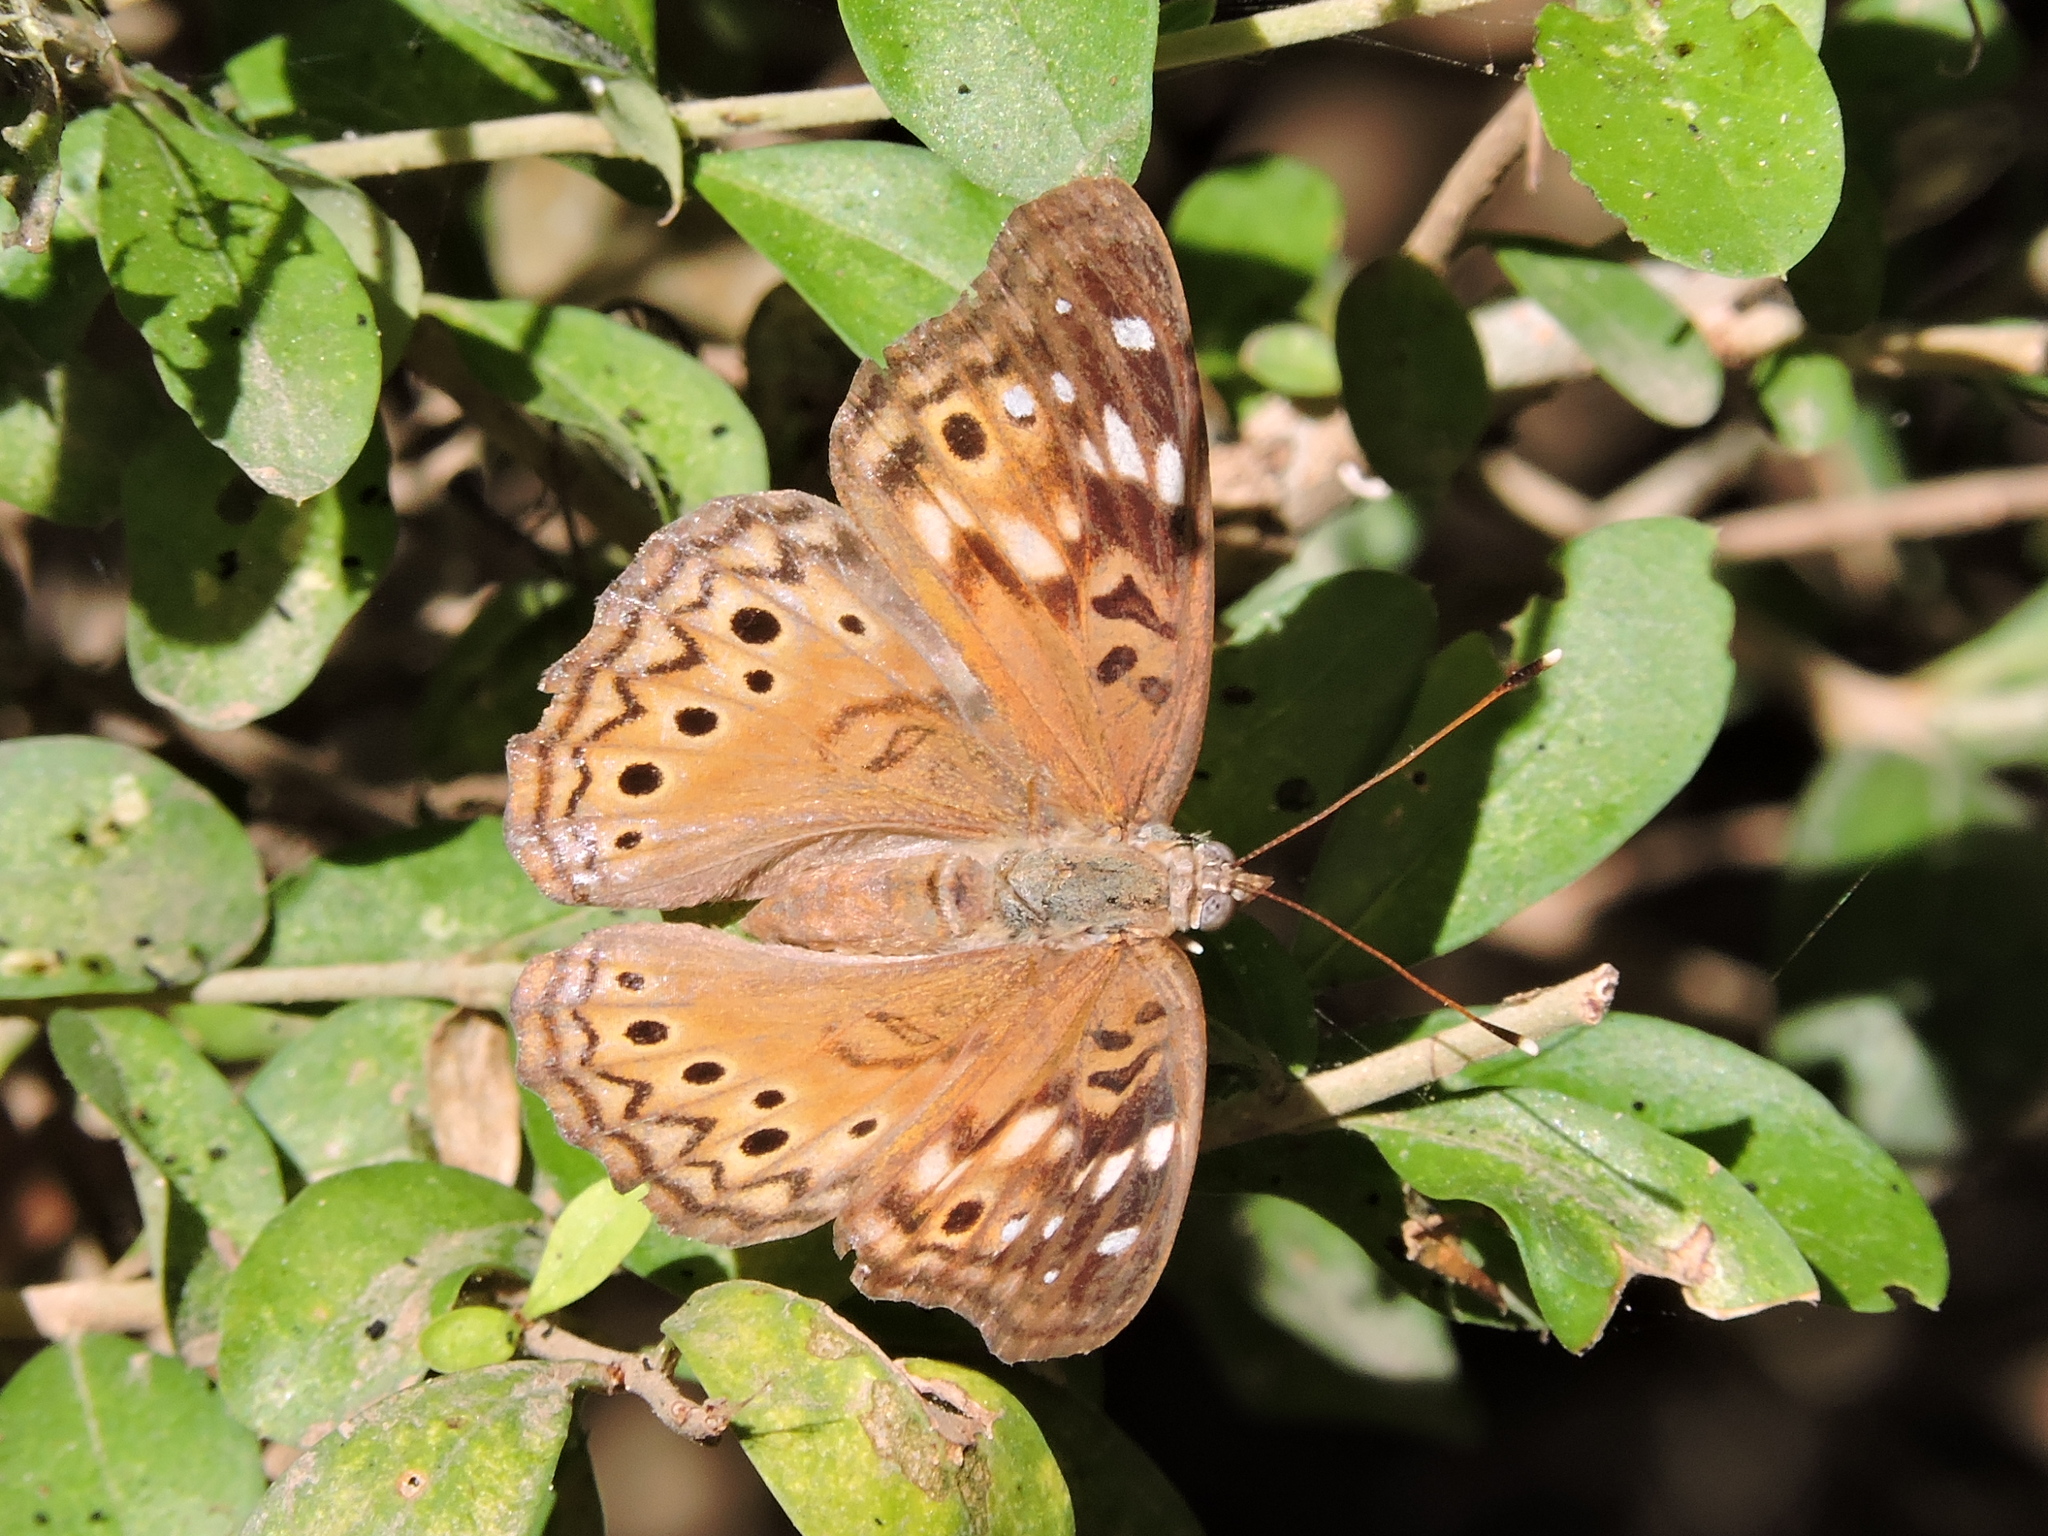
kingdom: Animalia
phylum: Arthropoda
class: Insecta
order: Lepidoptera
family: Nymphalidae
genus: Asterocampa
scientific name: Asterocampa celtis
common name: Hackberry emperor
